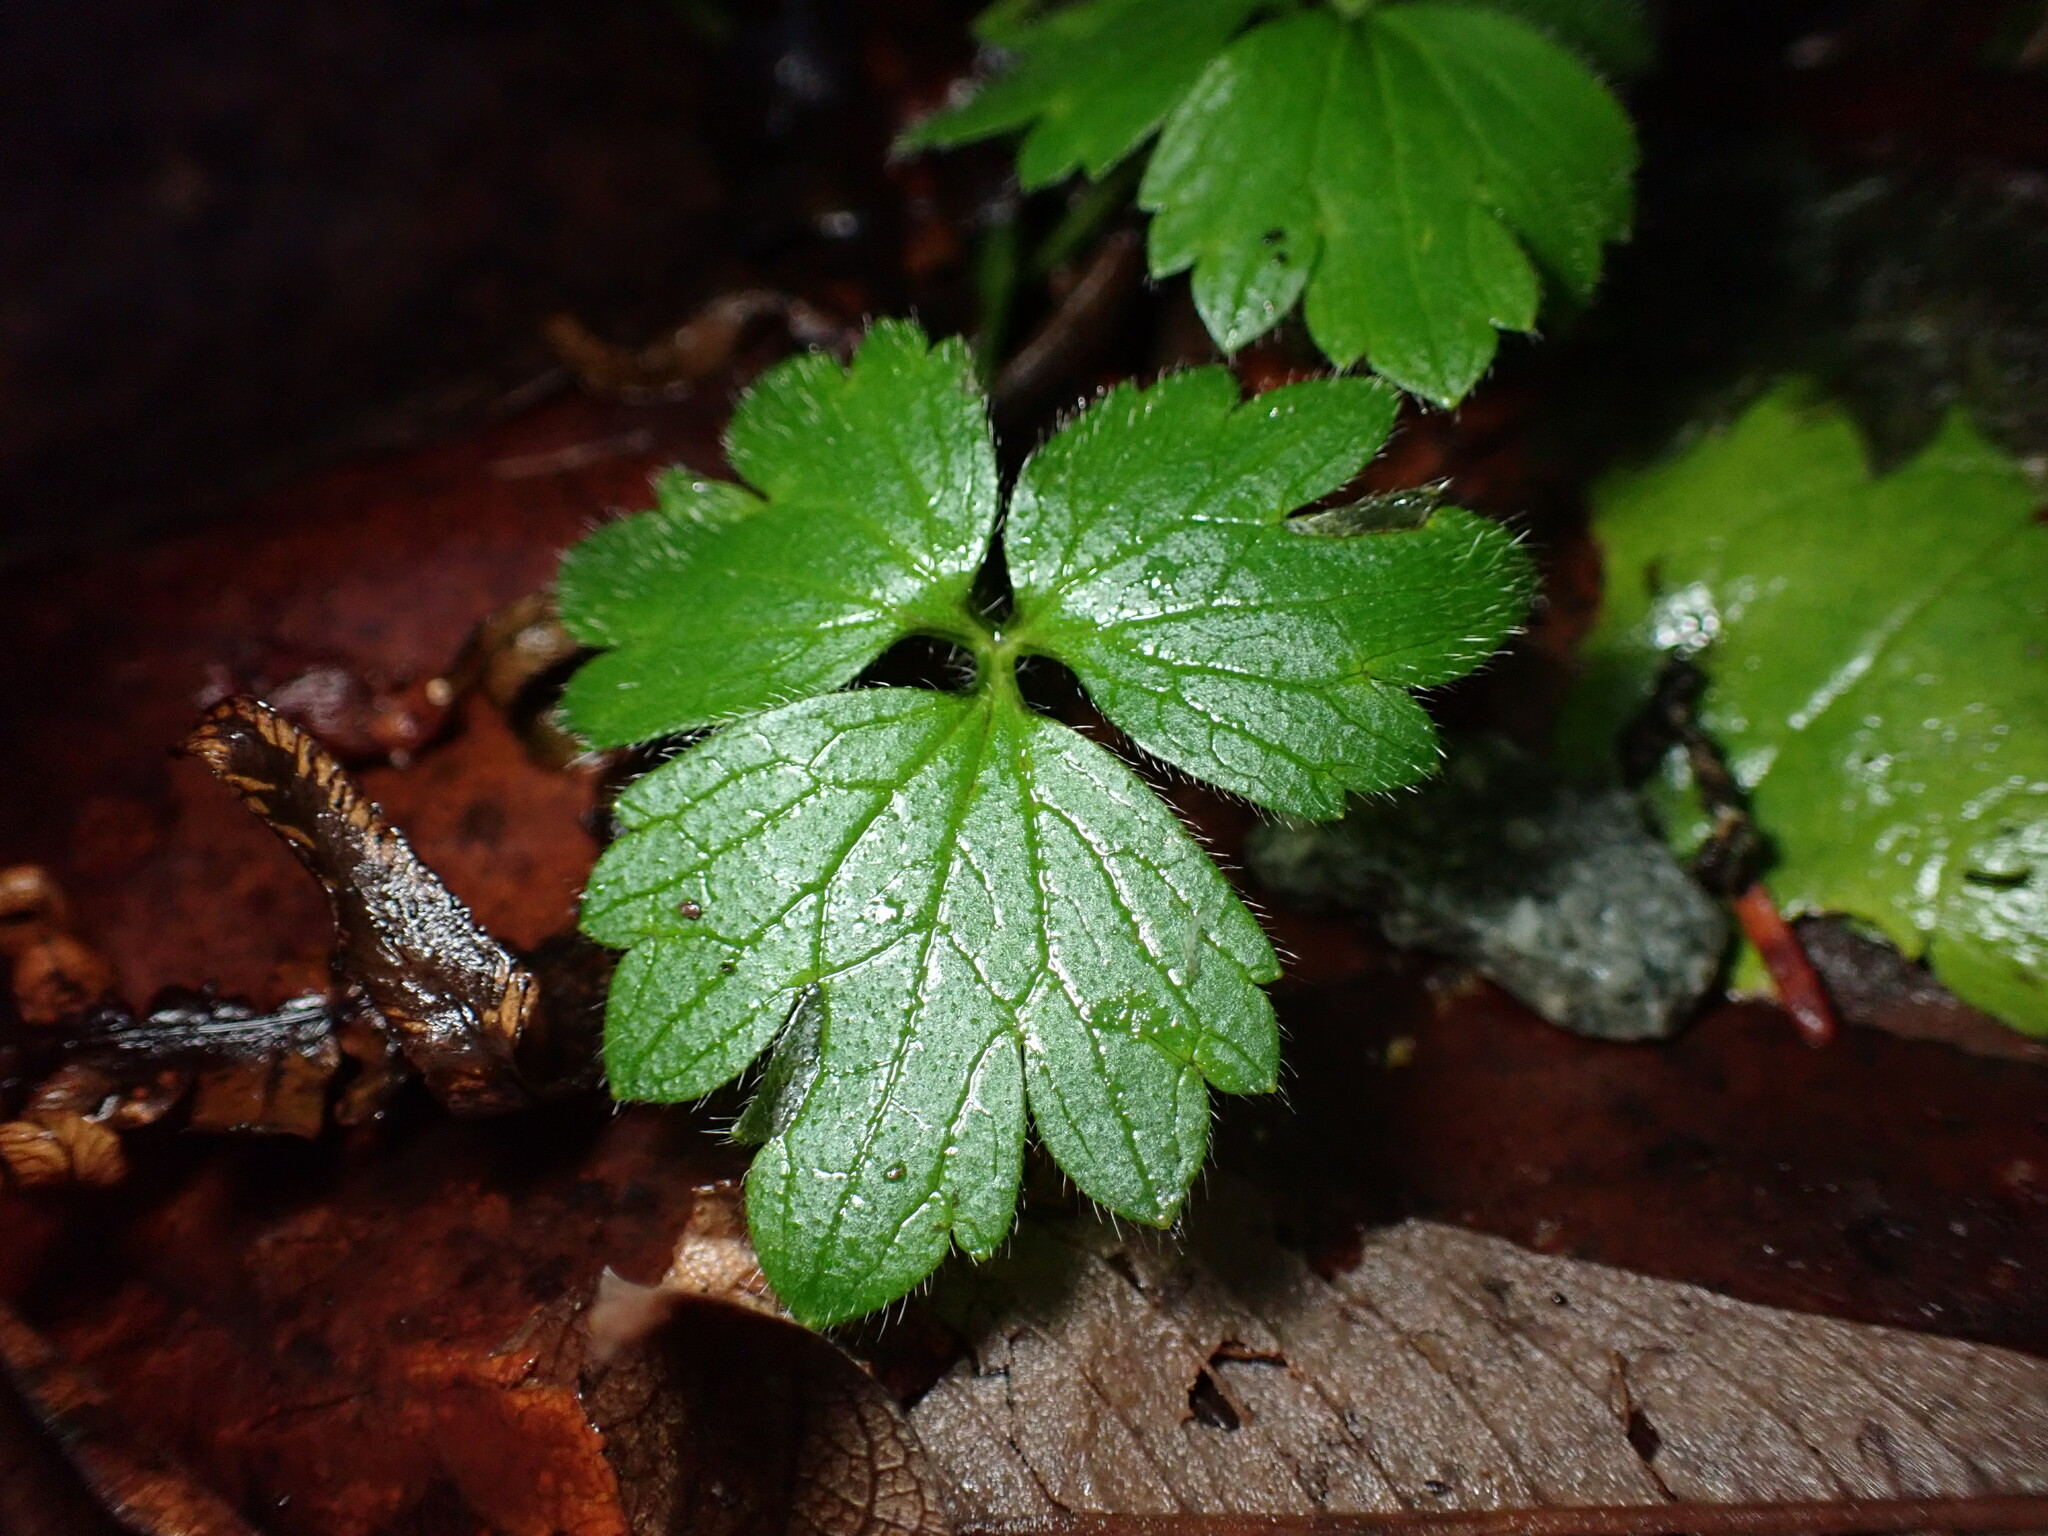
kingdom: Plantae
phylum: Tracheophyta
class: Magnoliopsida
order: Ranunculales
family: Ranunculaceae
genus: Ranunculus
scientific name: Ranunculus repens
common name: Creeping buttercup
